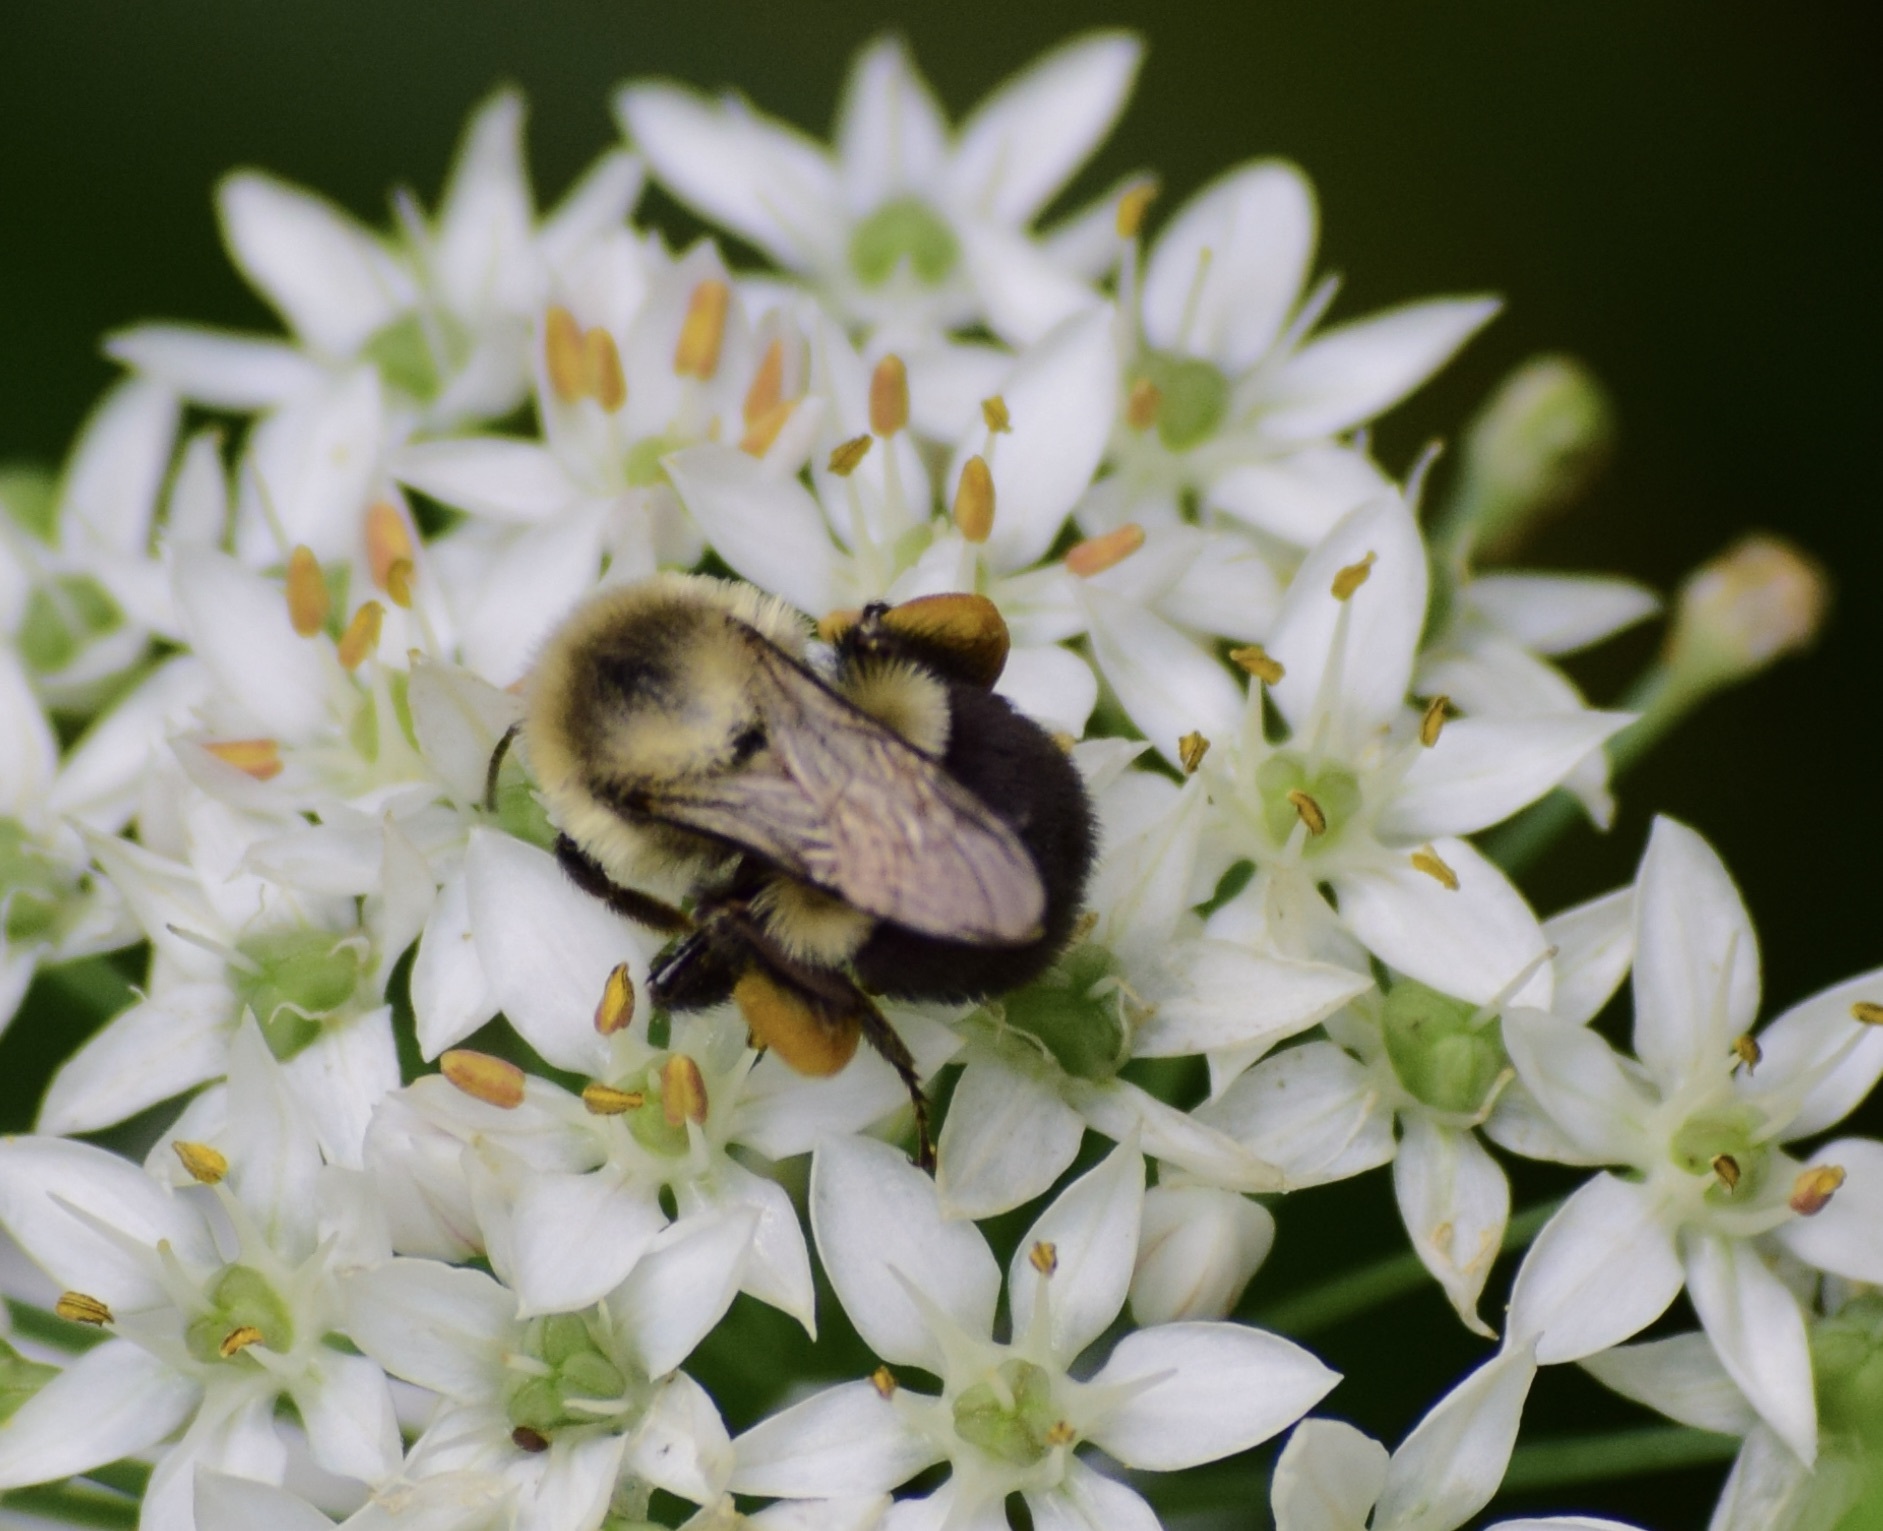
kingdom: Animalia
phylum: Arthropoda
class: Insecta
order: Hymenoptera
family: Apidae
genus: Bombus
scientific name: Bombus impatiens
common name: Common eastern bumble bee
